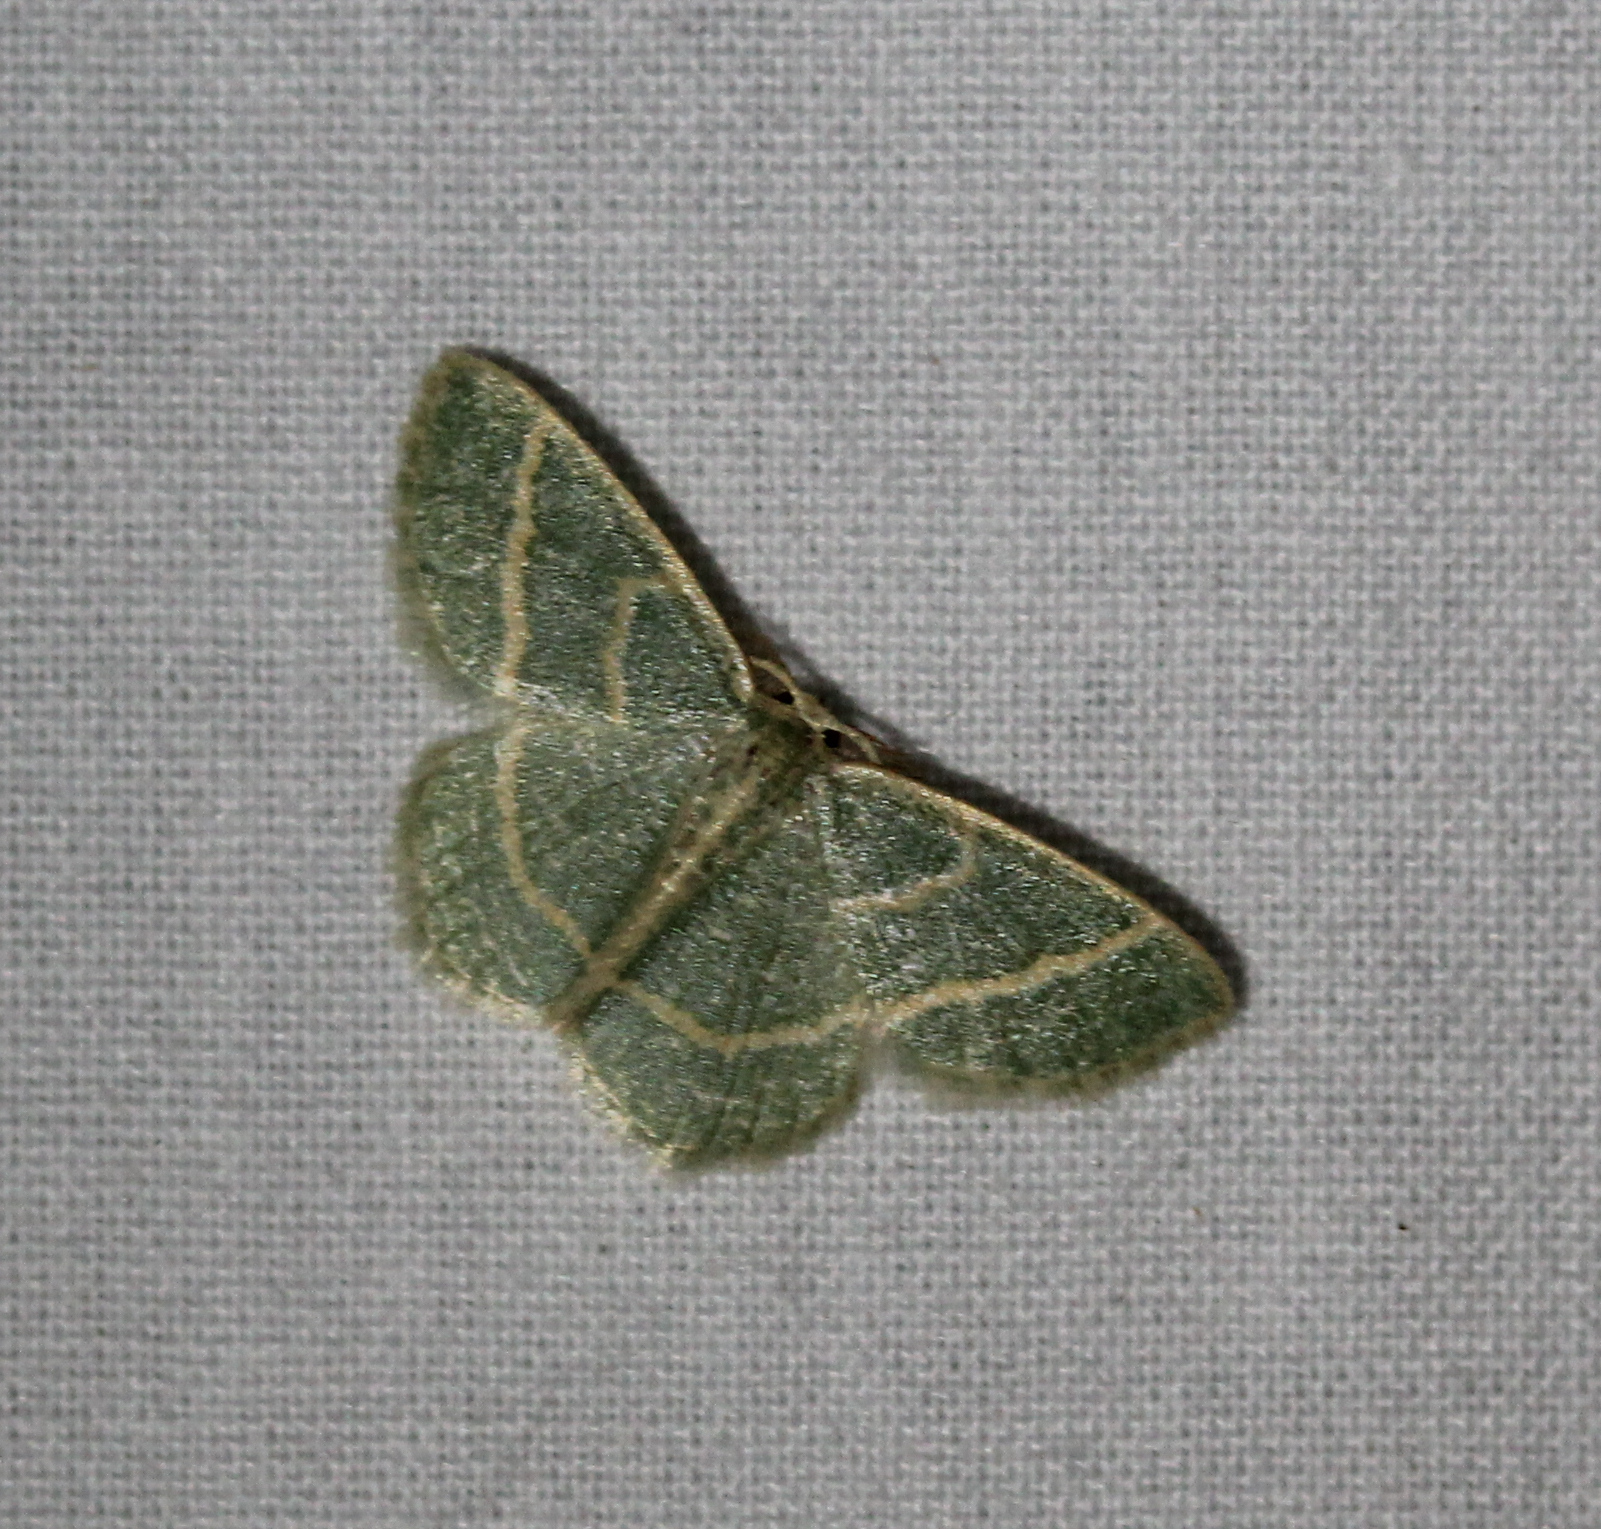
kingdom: Animalia
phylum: Arthropoda
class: Insecta
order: Lepidoptera
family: Geometridae
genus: Chlorochlamys
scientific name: Chlorochlamys chloroleucaria
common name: Blackberry looper
